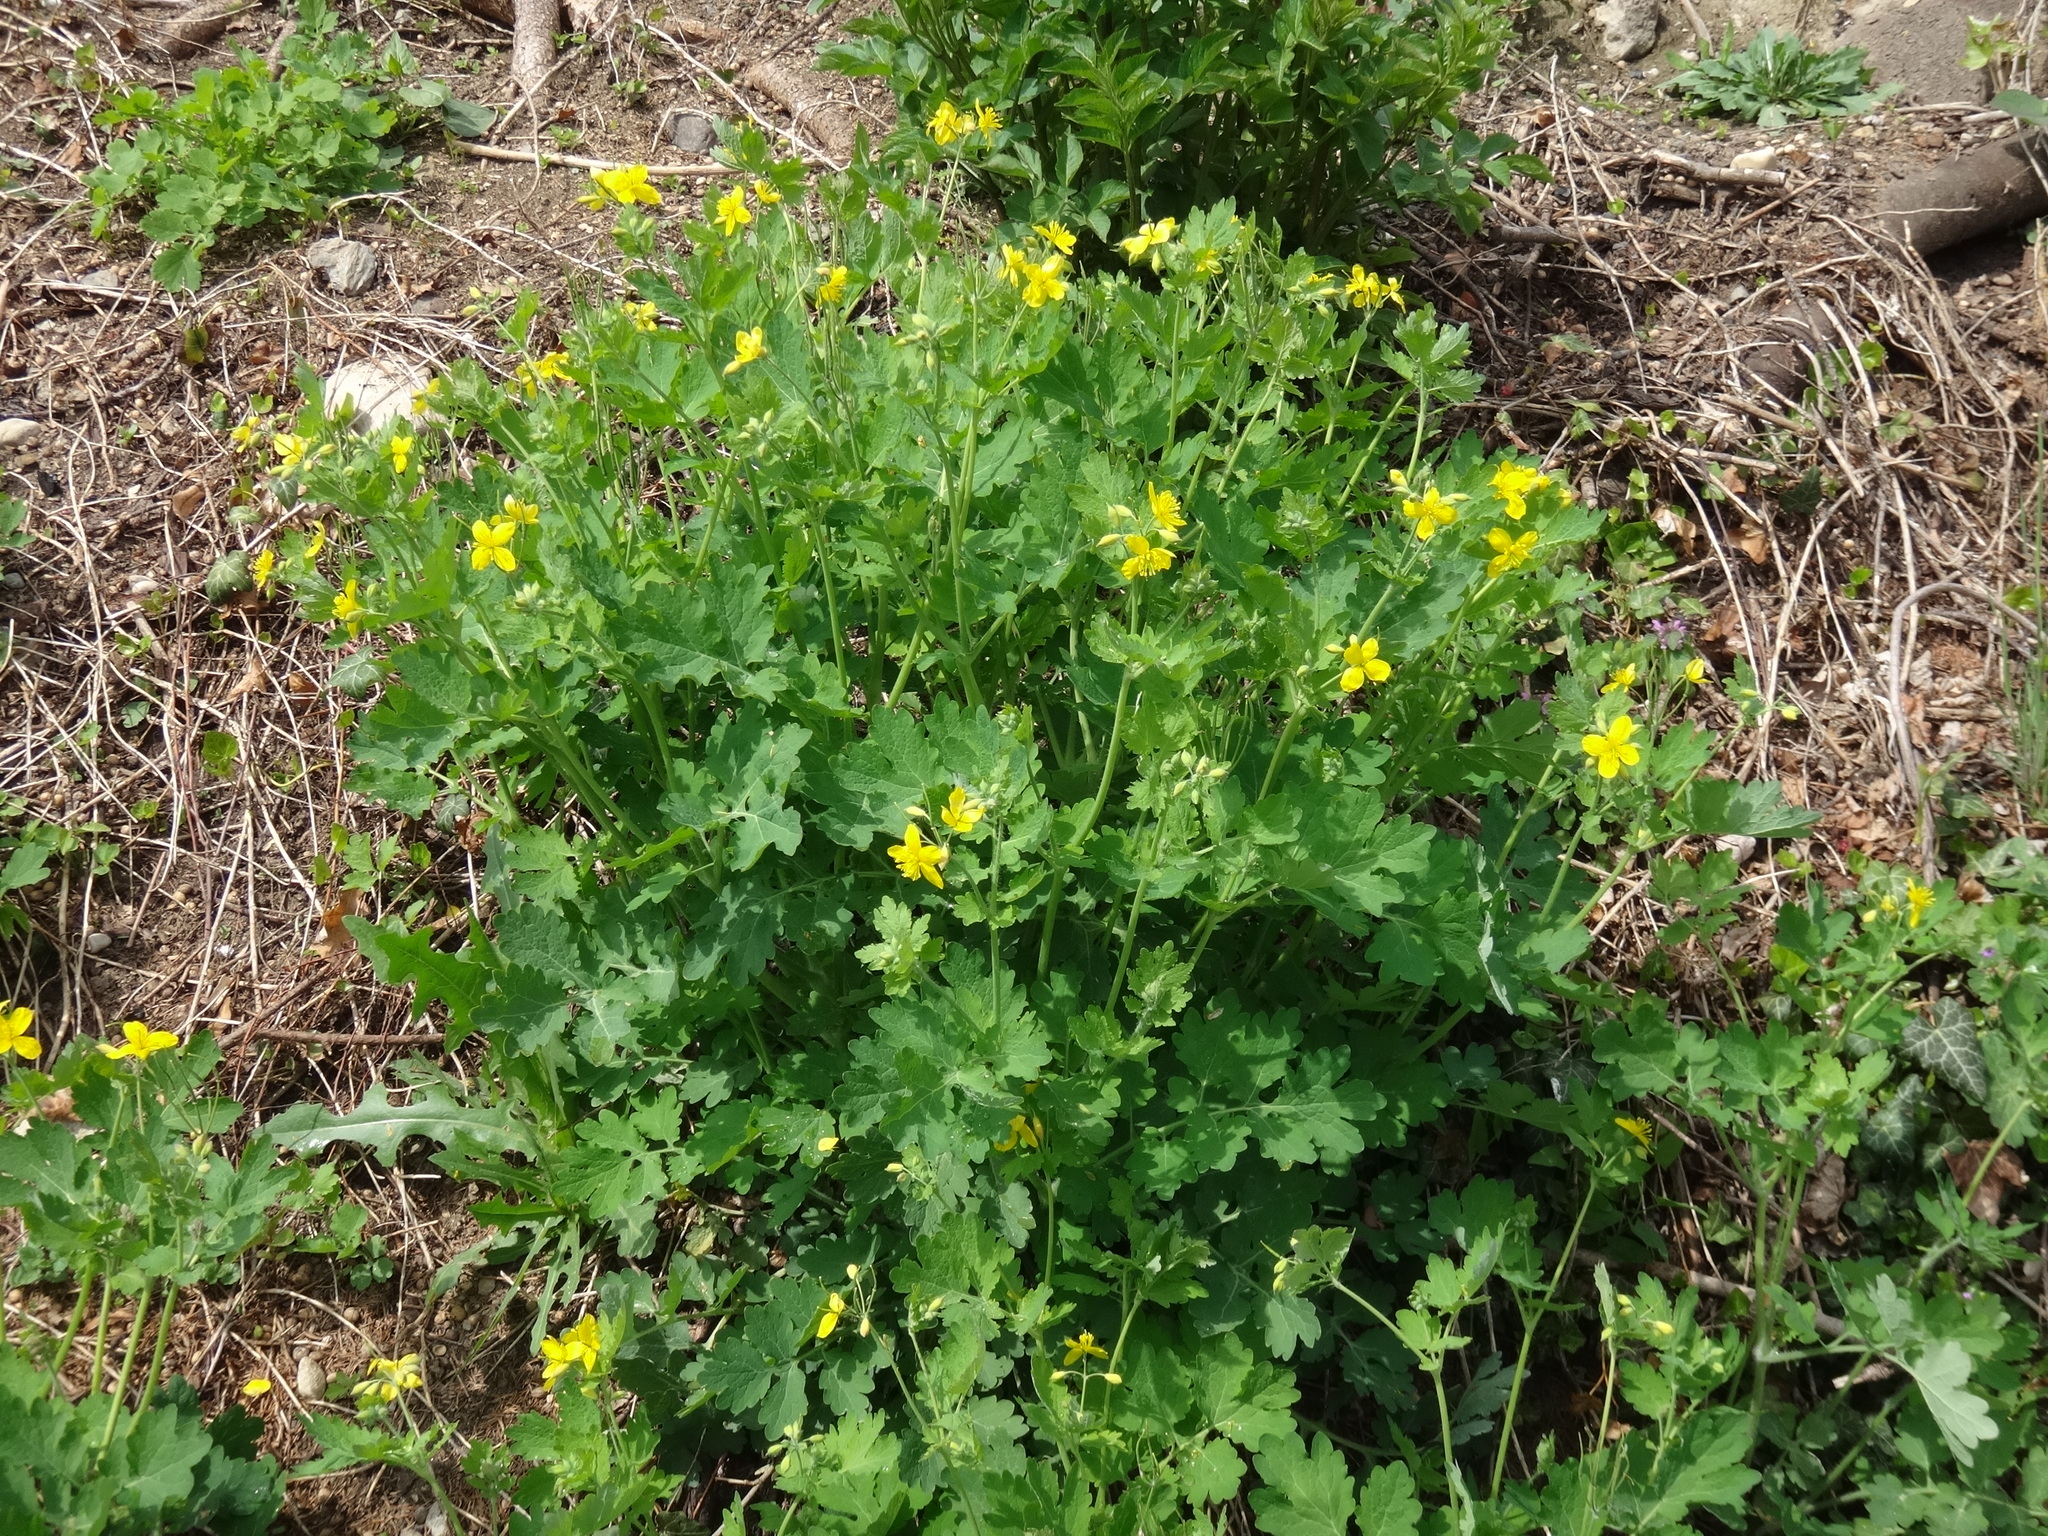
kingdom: Plantae
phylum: Tracheophyta
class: Magnoliopsida
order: Ranunculales
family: Papaveraceae
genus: Chelidonium
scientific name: Chelidonium majus
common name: Greater celandine
